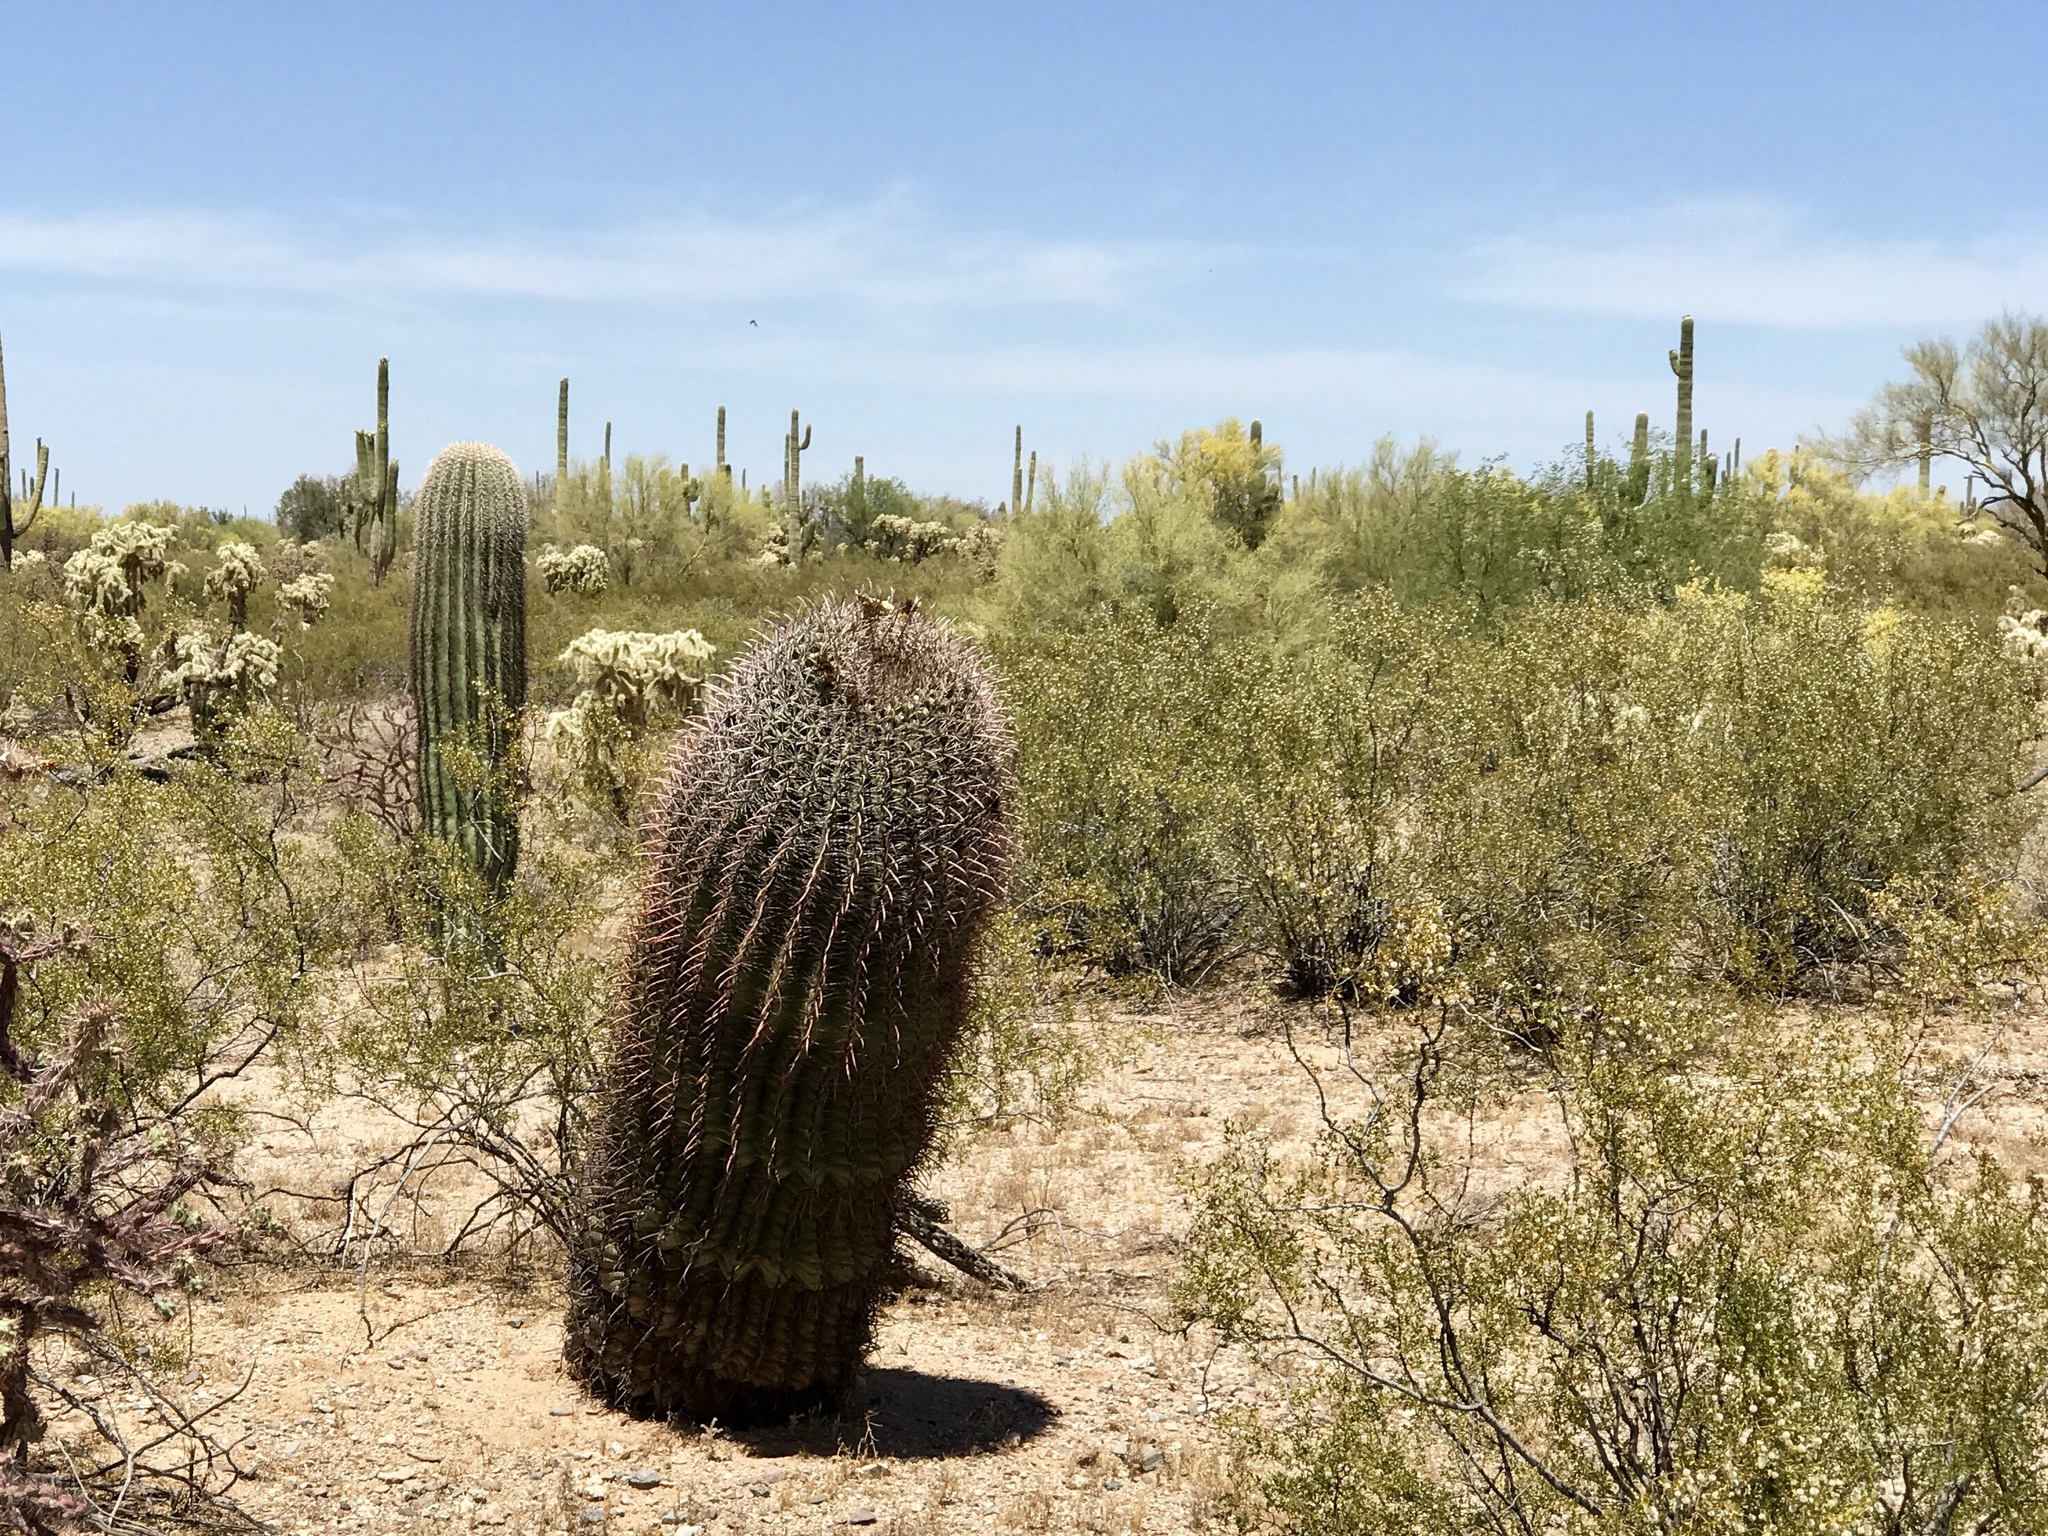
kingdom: Plantae
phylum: Tracheophyta
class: Magnoliopsida
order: Caryophyllales
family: Cactaceae
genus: Ferocactus
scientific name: Ferocactus wislizeni
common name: Candy barrel cactus
